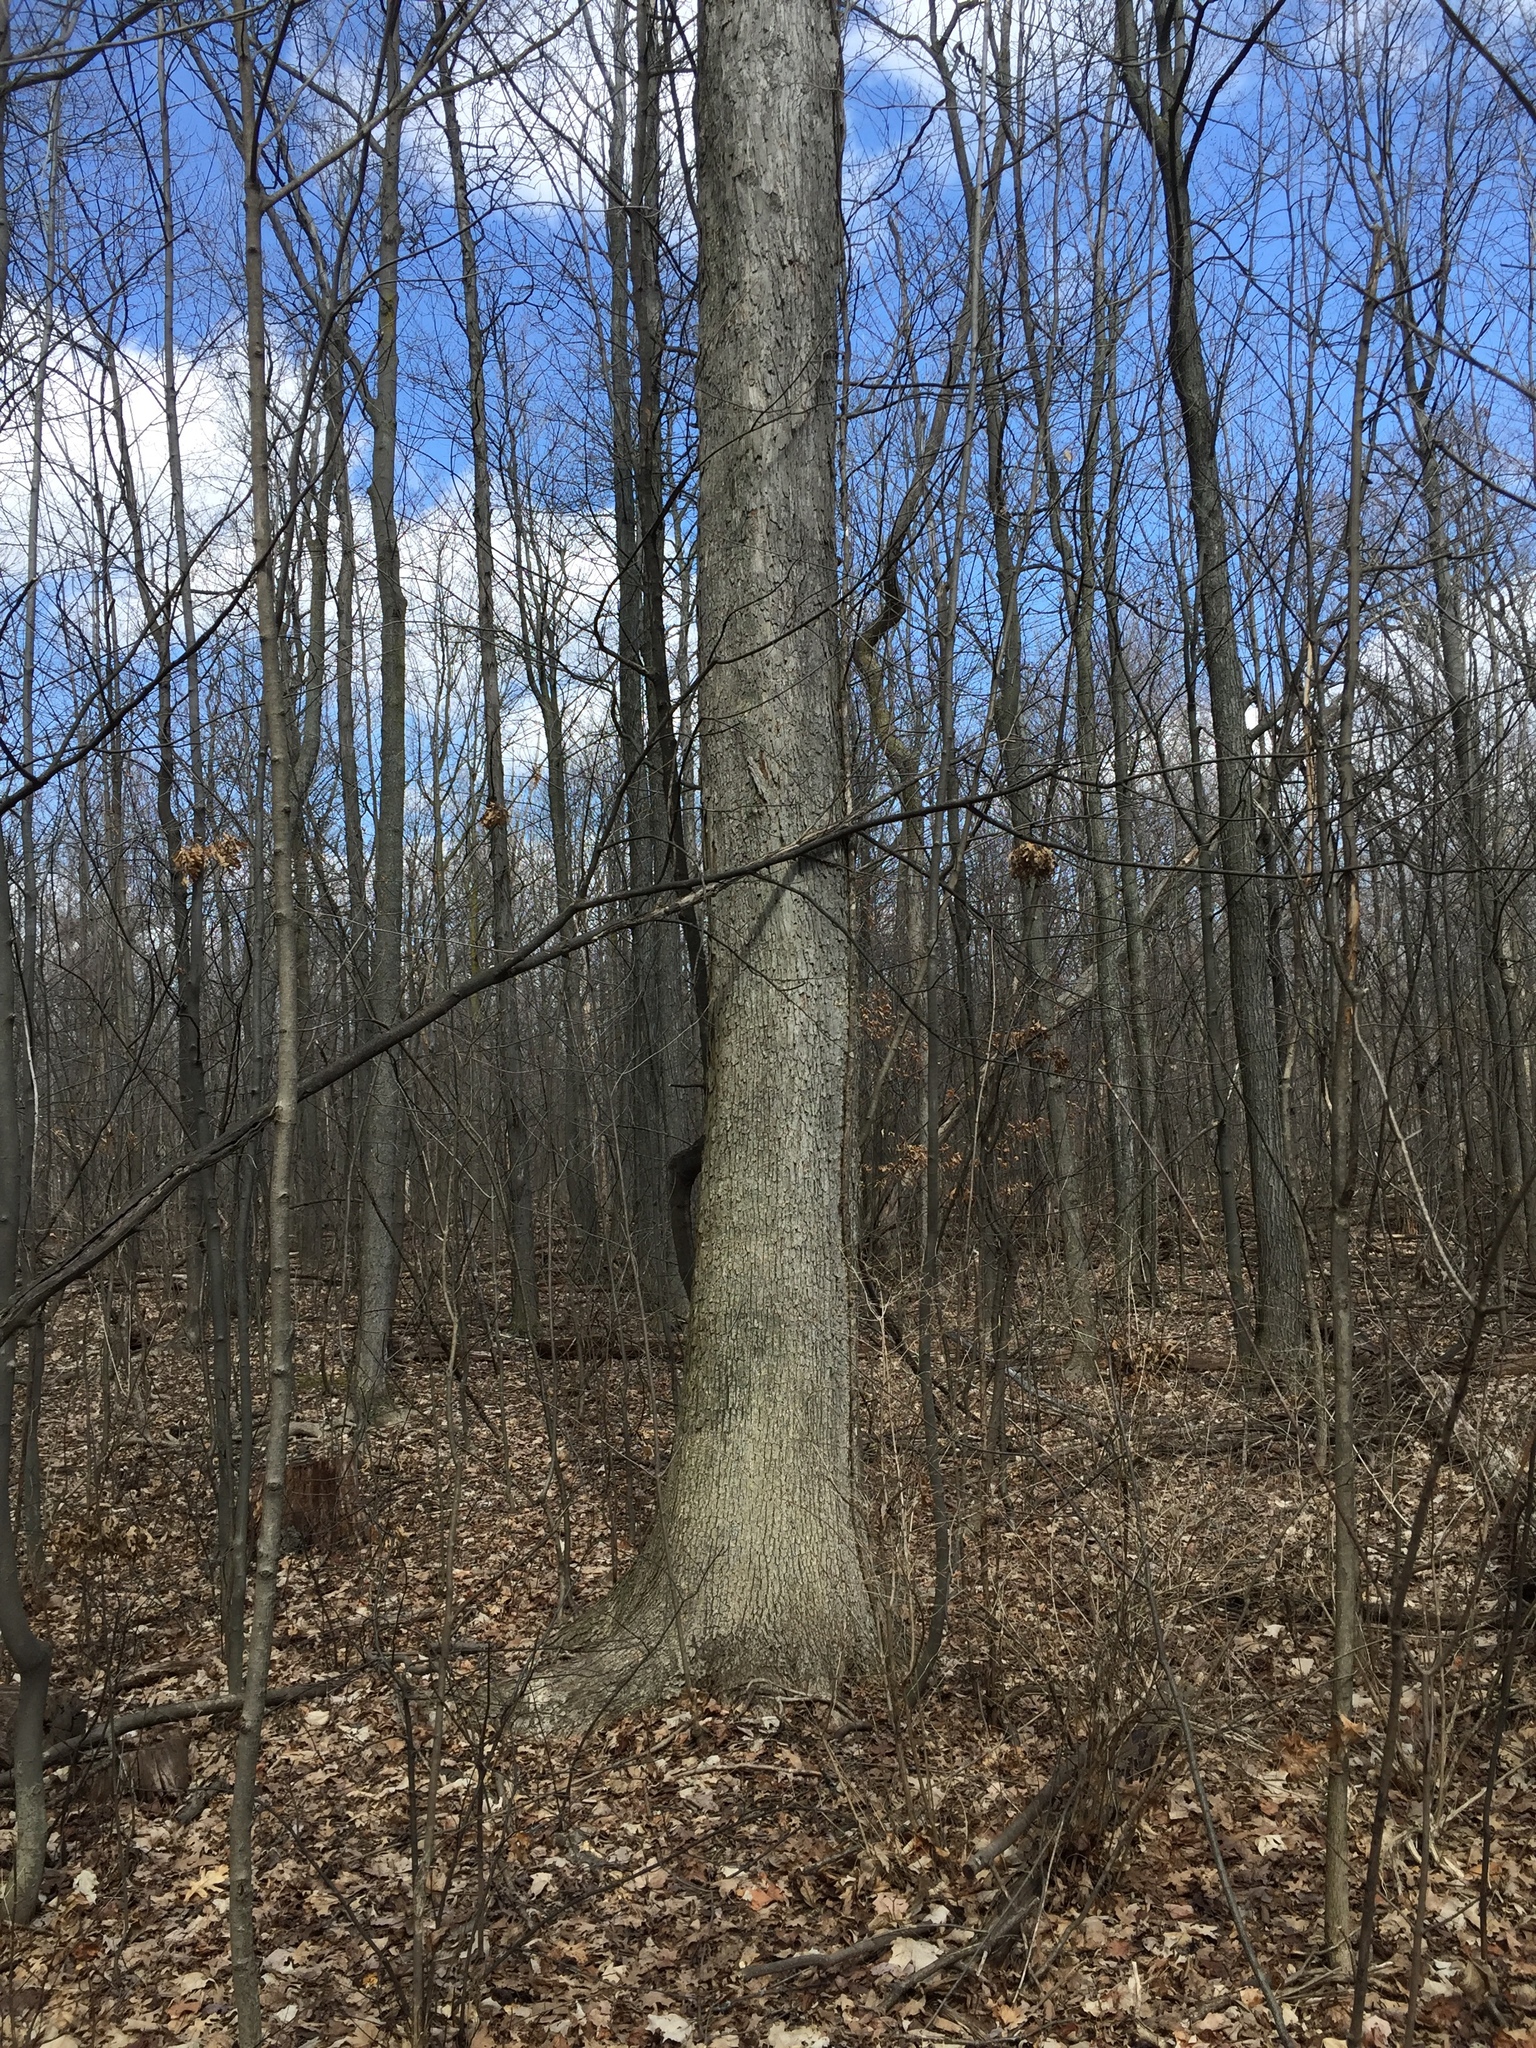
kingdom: Plantae
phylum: Tracheophyta
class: Magnoliopsida
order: Fagales
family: Fagaceae
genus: Quercus
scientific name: Quercus alba
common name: White oak
